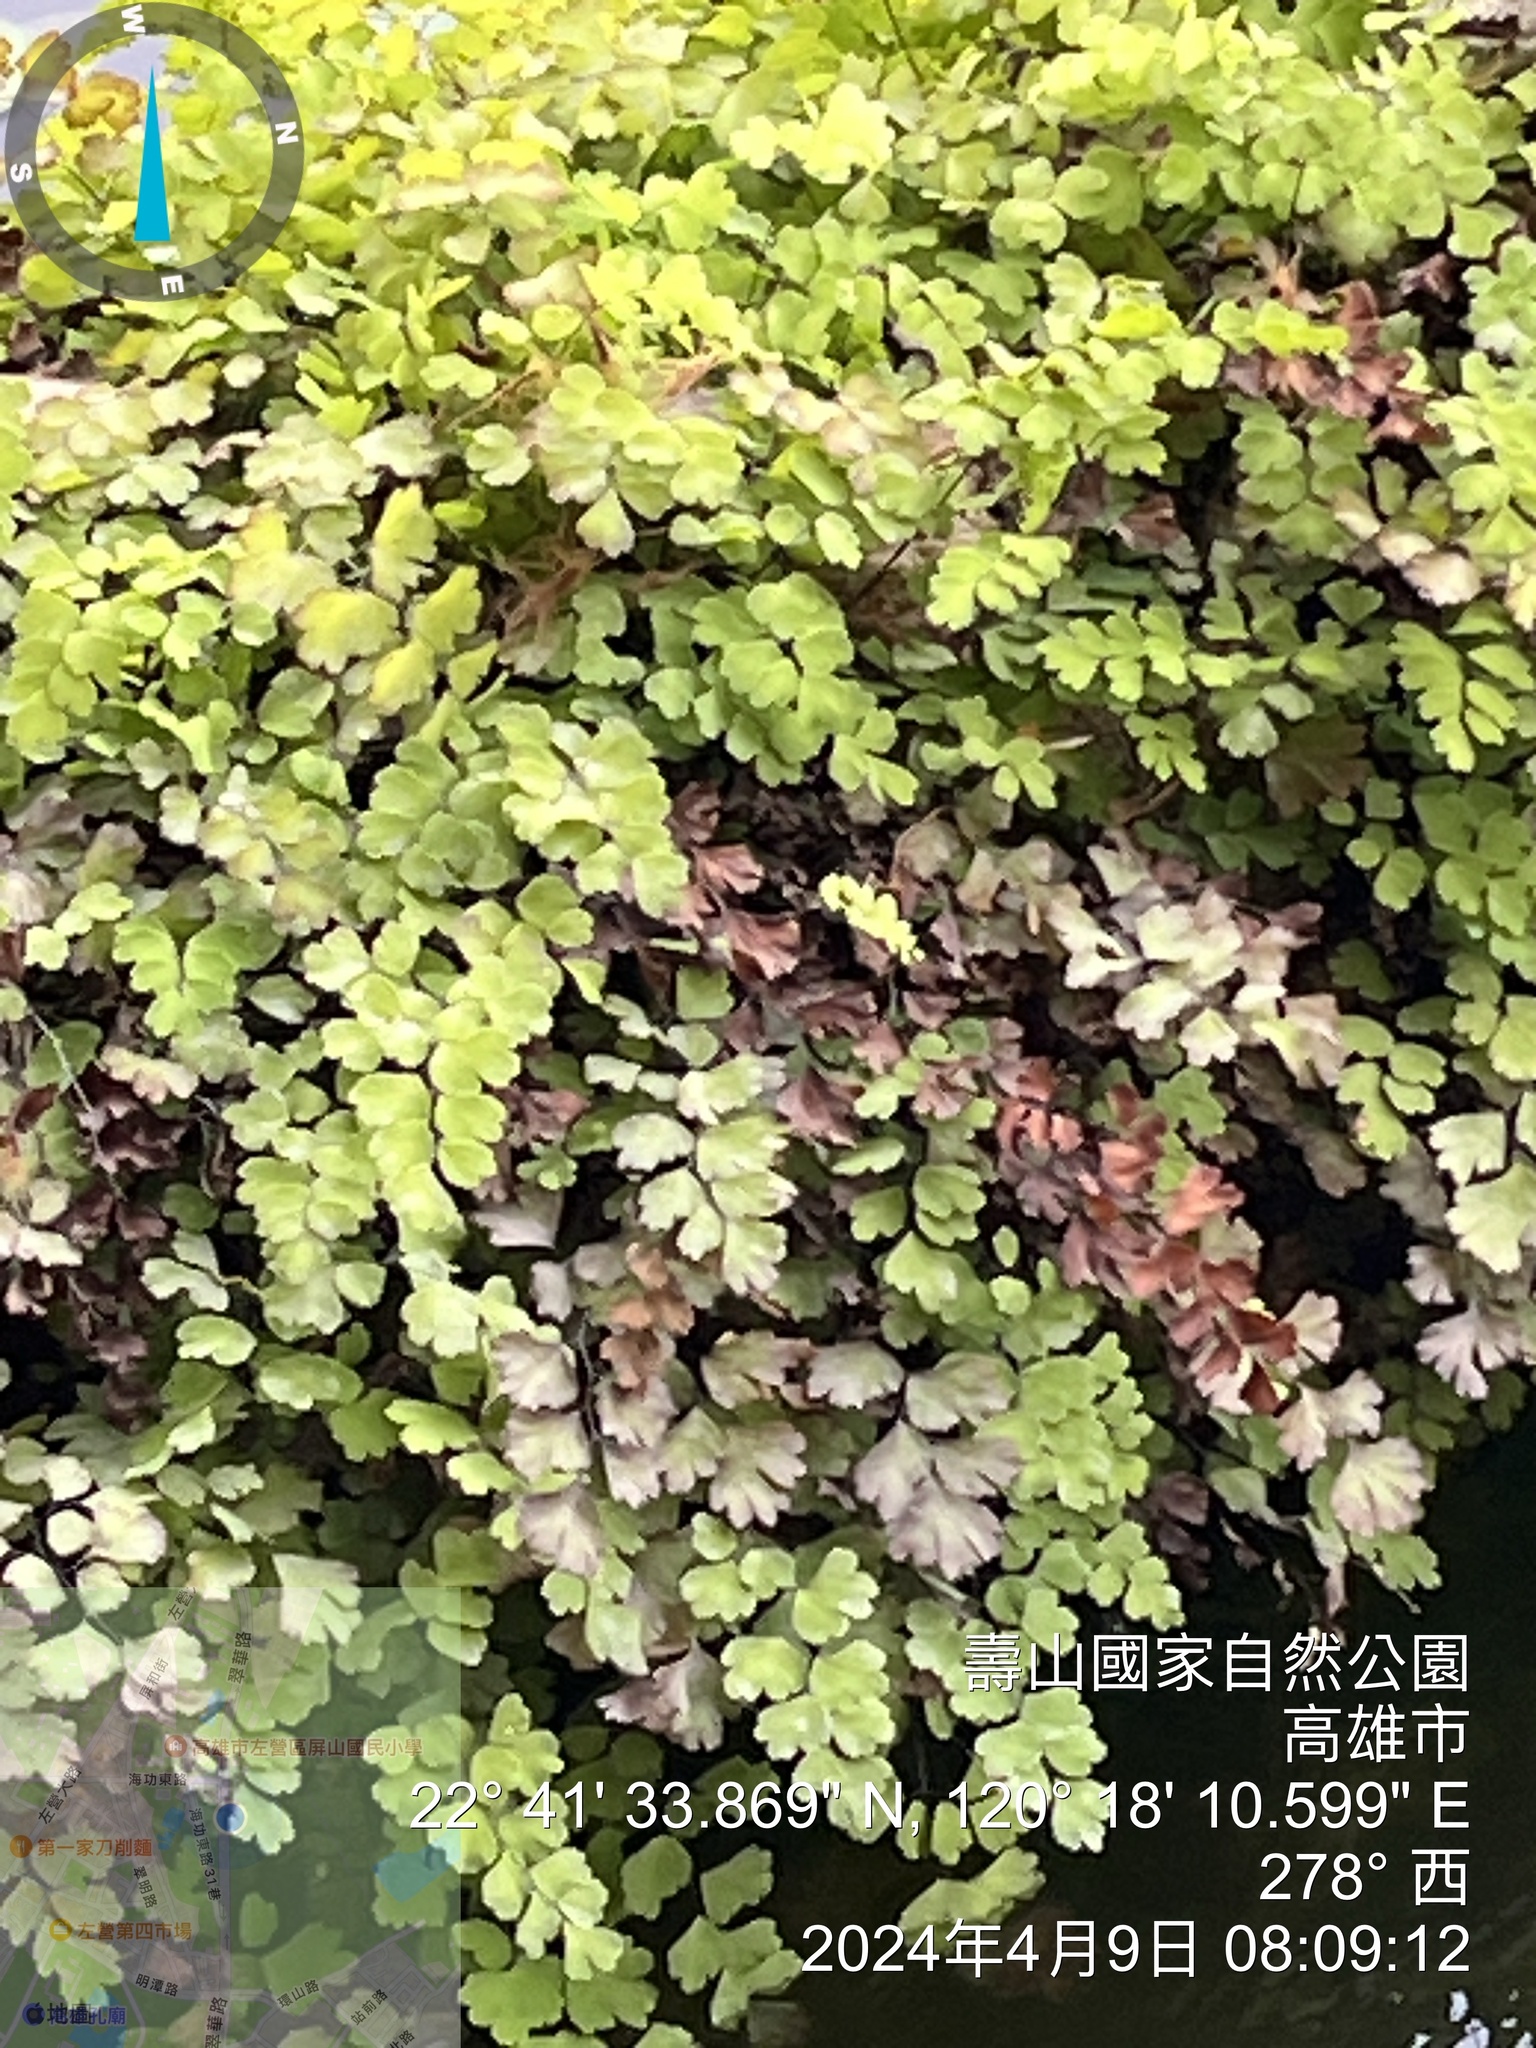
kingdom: Plantae
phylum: Tracheophyta
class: Polypodiopsida
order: Polypodiales
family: Pteridaceae
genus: Adiantum
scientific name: Adiantum capillus-veneris
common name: Maidenhair fern
